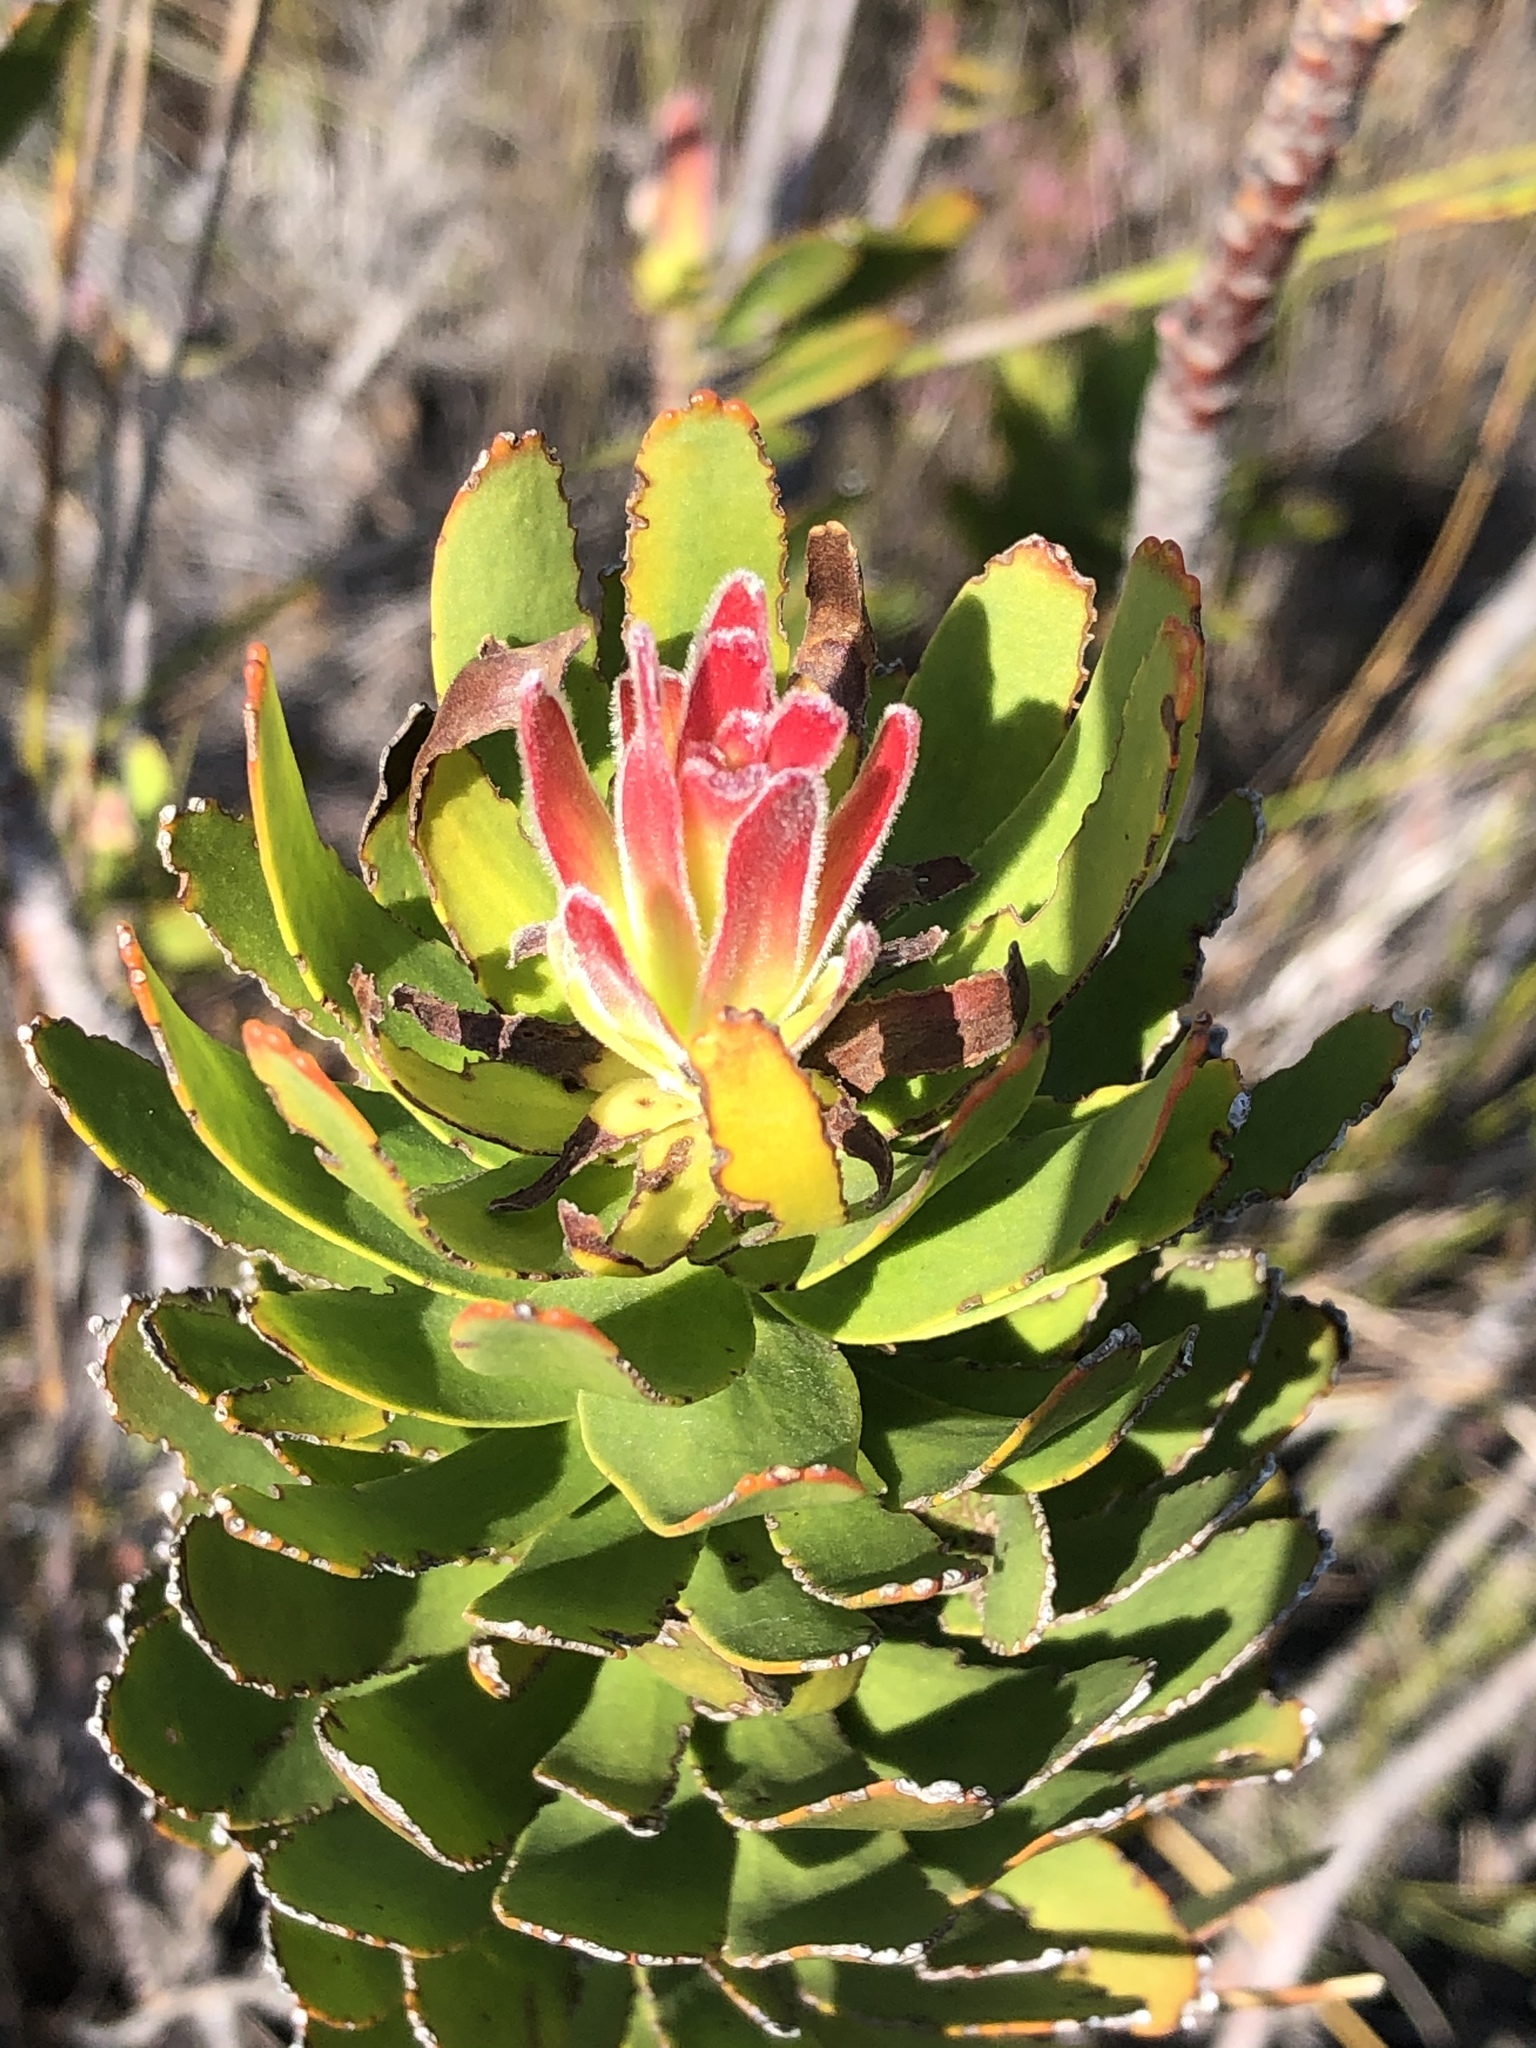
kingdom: Plantae
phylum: Tracheophyta
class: Magnoliopsida
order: Proteales
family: Proteaceae
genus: Mimetes
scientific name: Mimetes cucullatus
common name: Common pagoda
